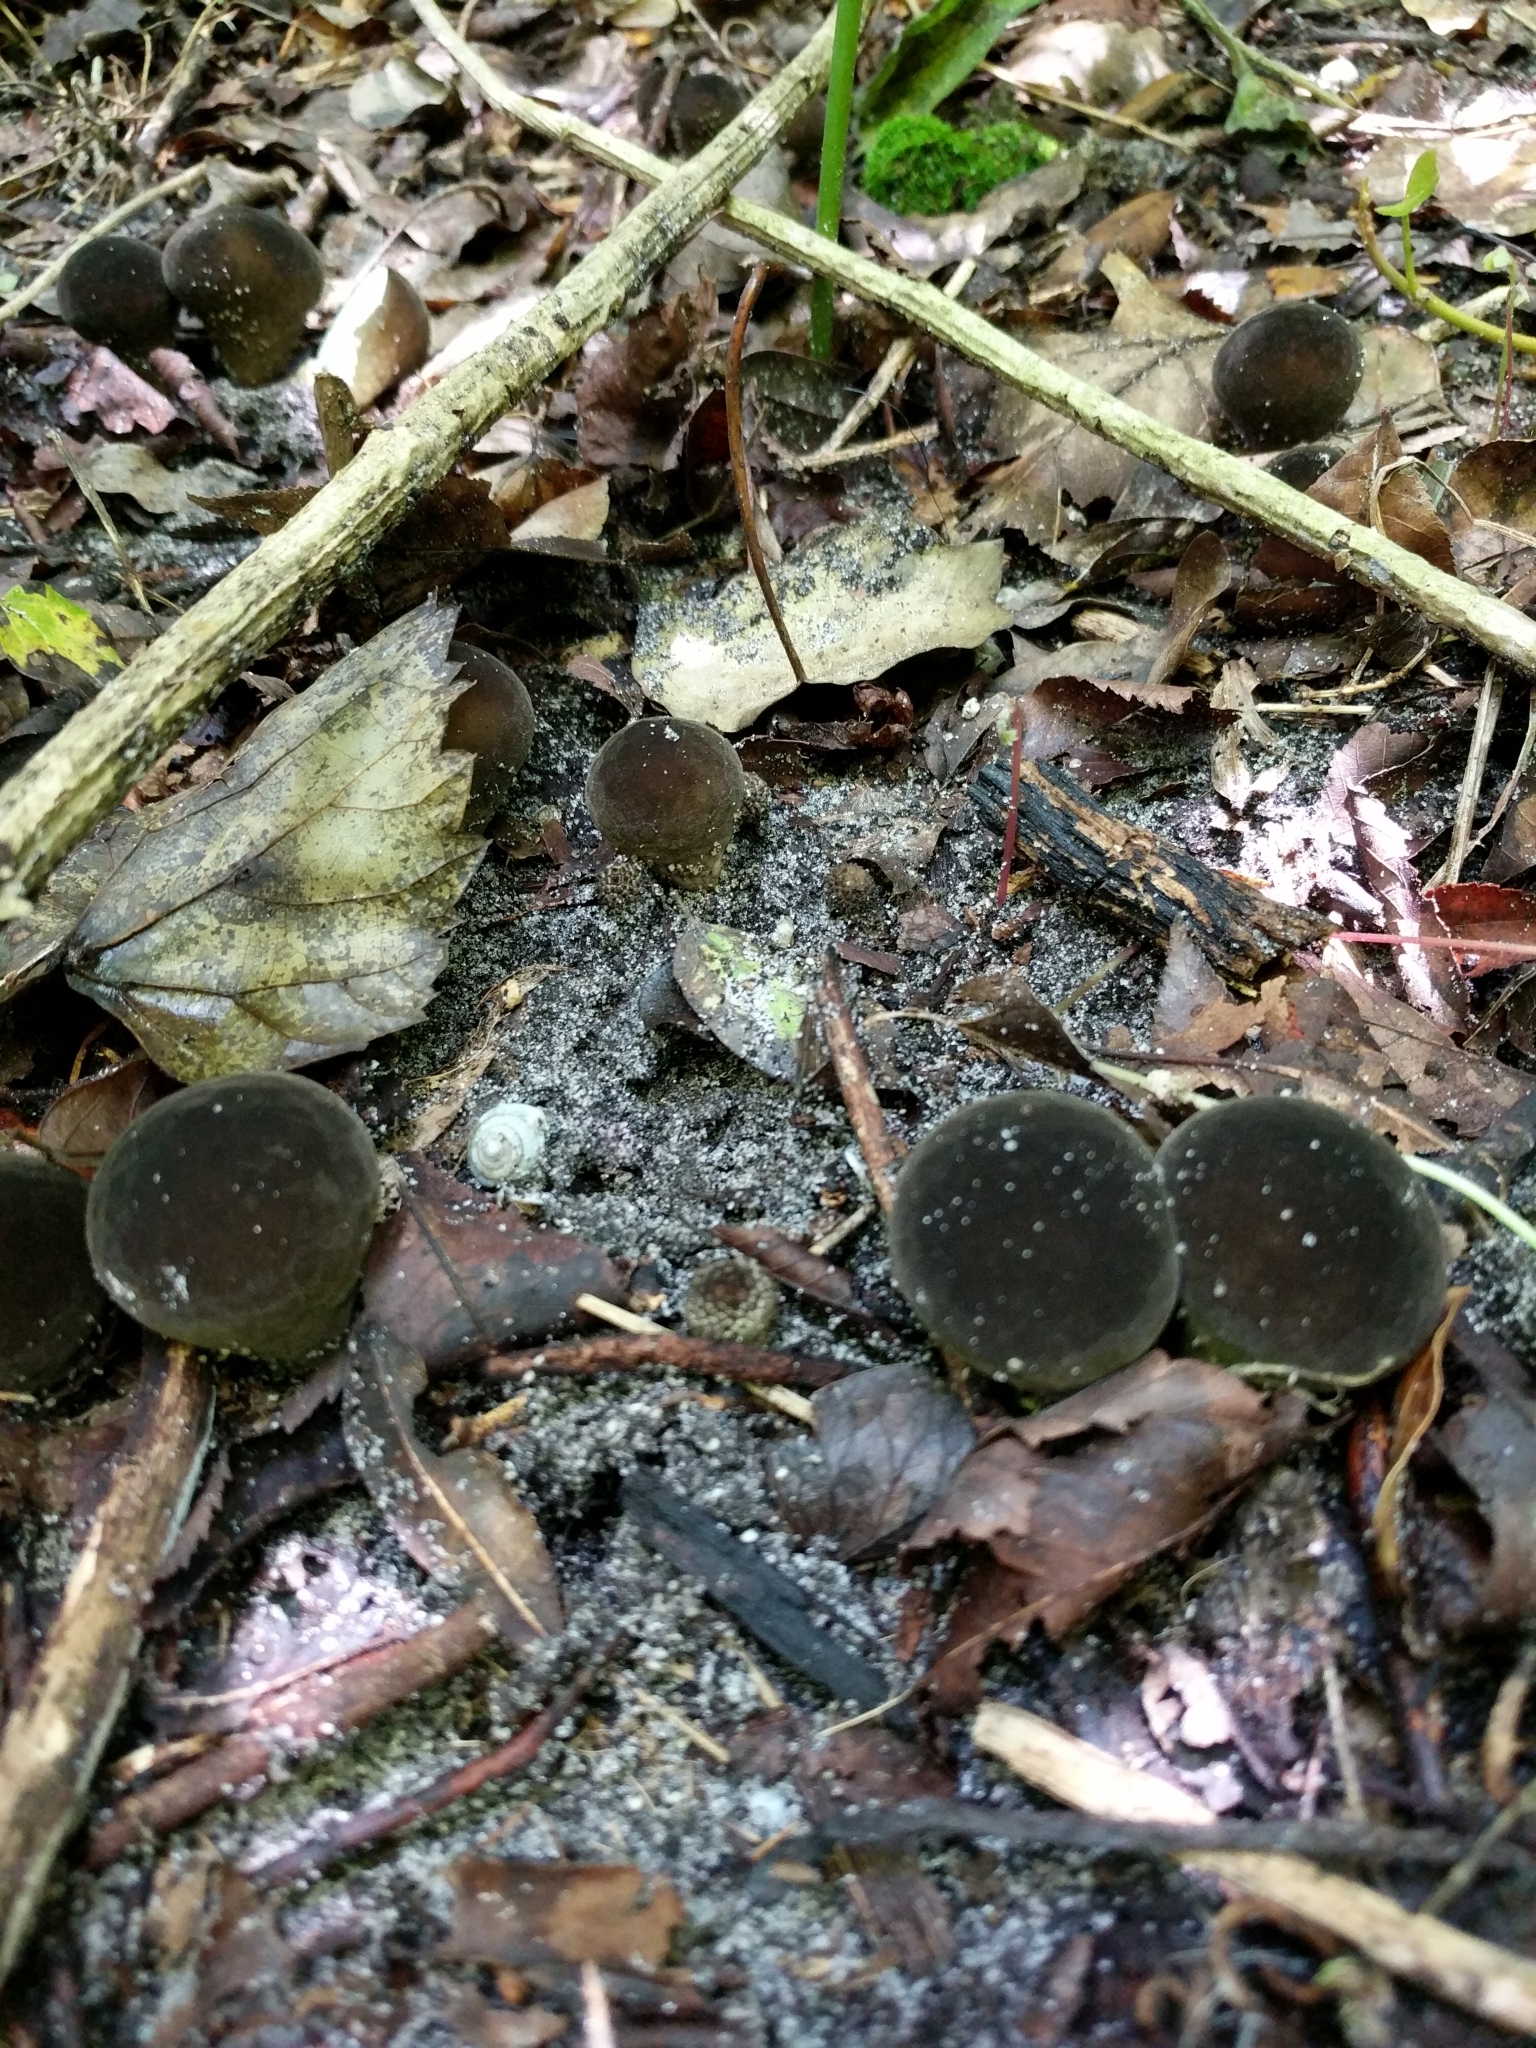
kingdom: Fungi
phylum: Basidiomycota
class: Agaricomycetes
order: Agaricales
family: Lycoperdaceae
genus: Lycoperdon
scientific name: Lycoperdon umbrinum
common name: Umber-brown puffball
